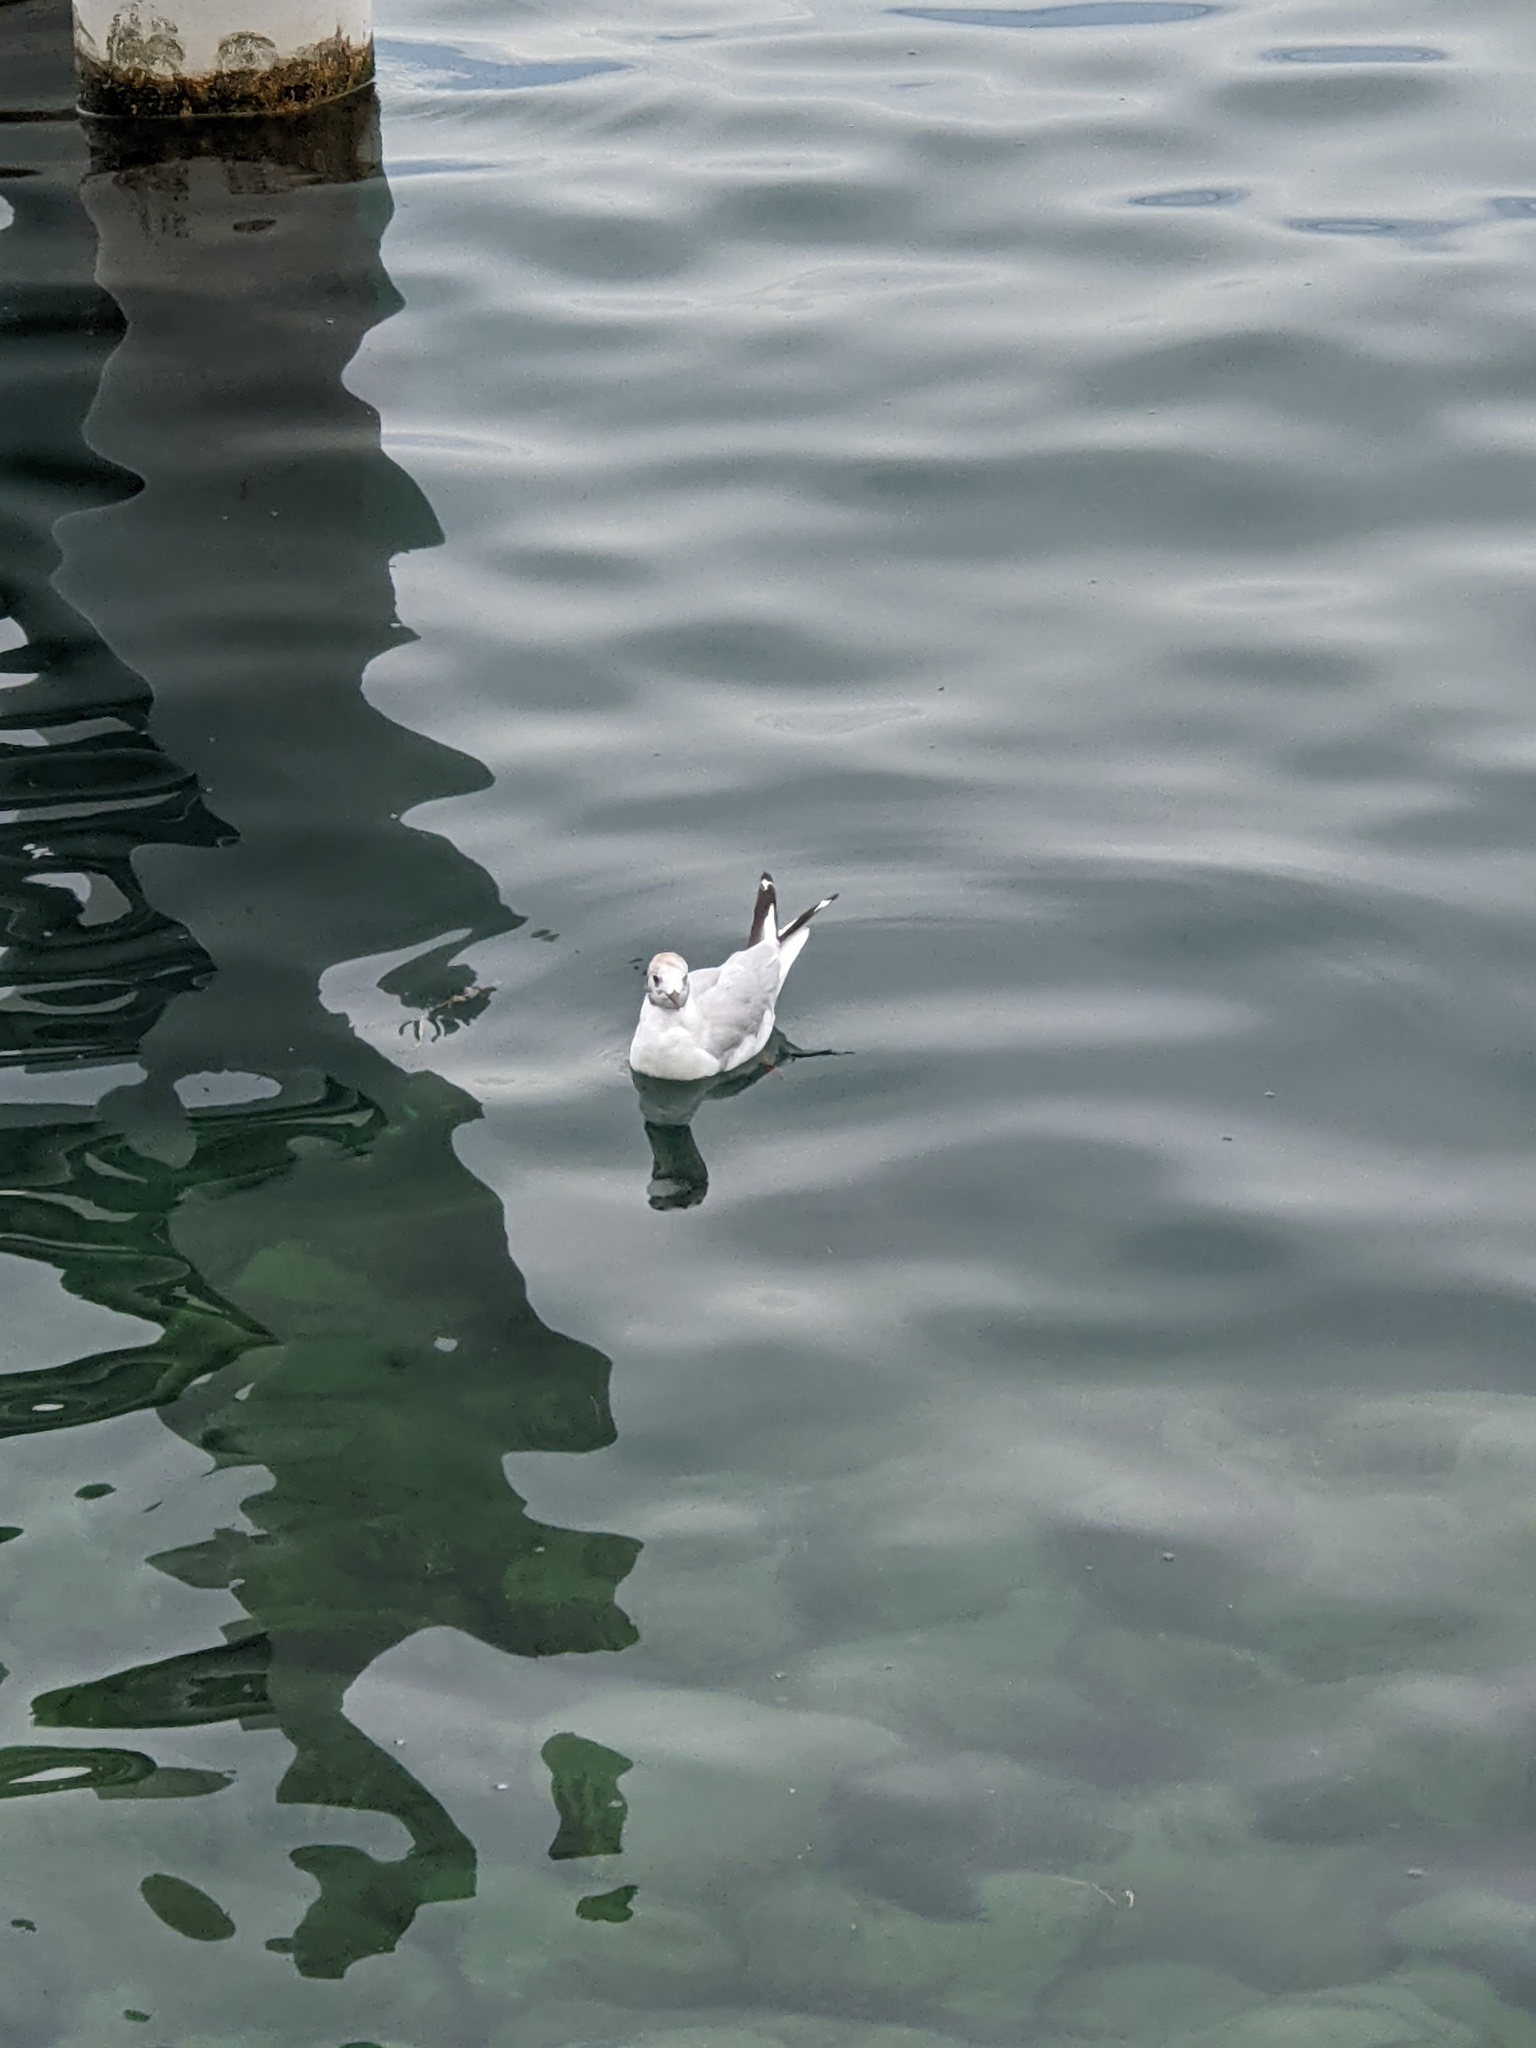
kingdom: Animalia
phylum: Chordata
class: Aves
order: Charadriiformes
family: Laridae
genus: Chroicocephalus
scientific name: Chroicocephalus ridibundus
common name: Black-headed gull
